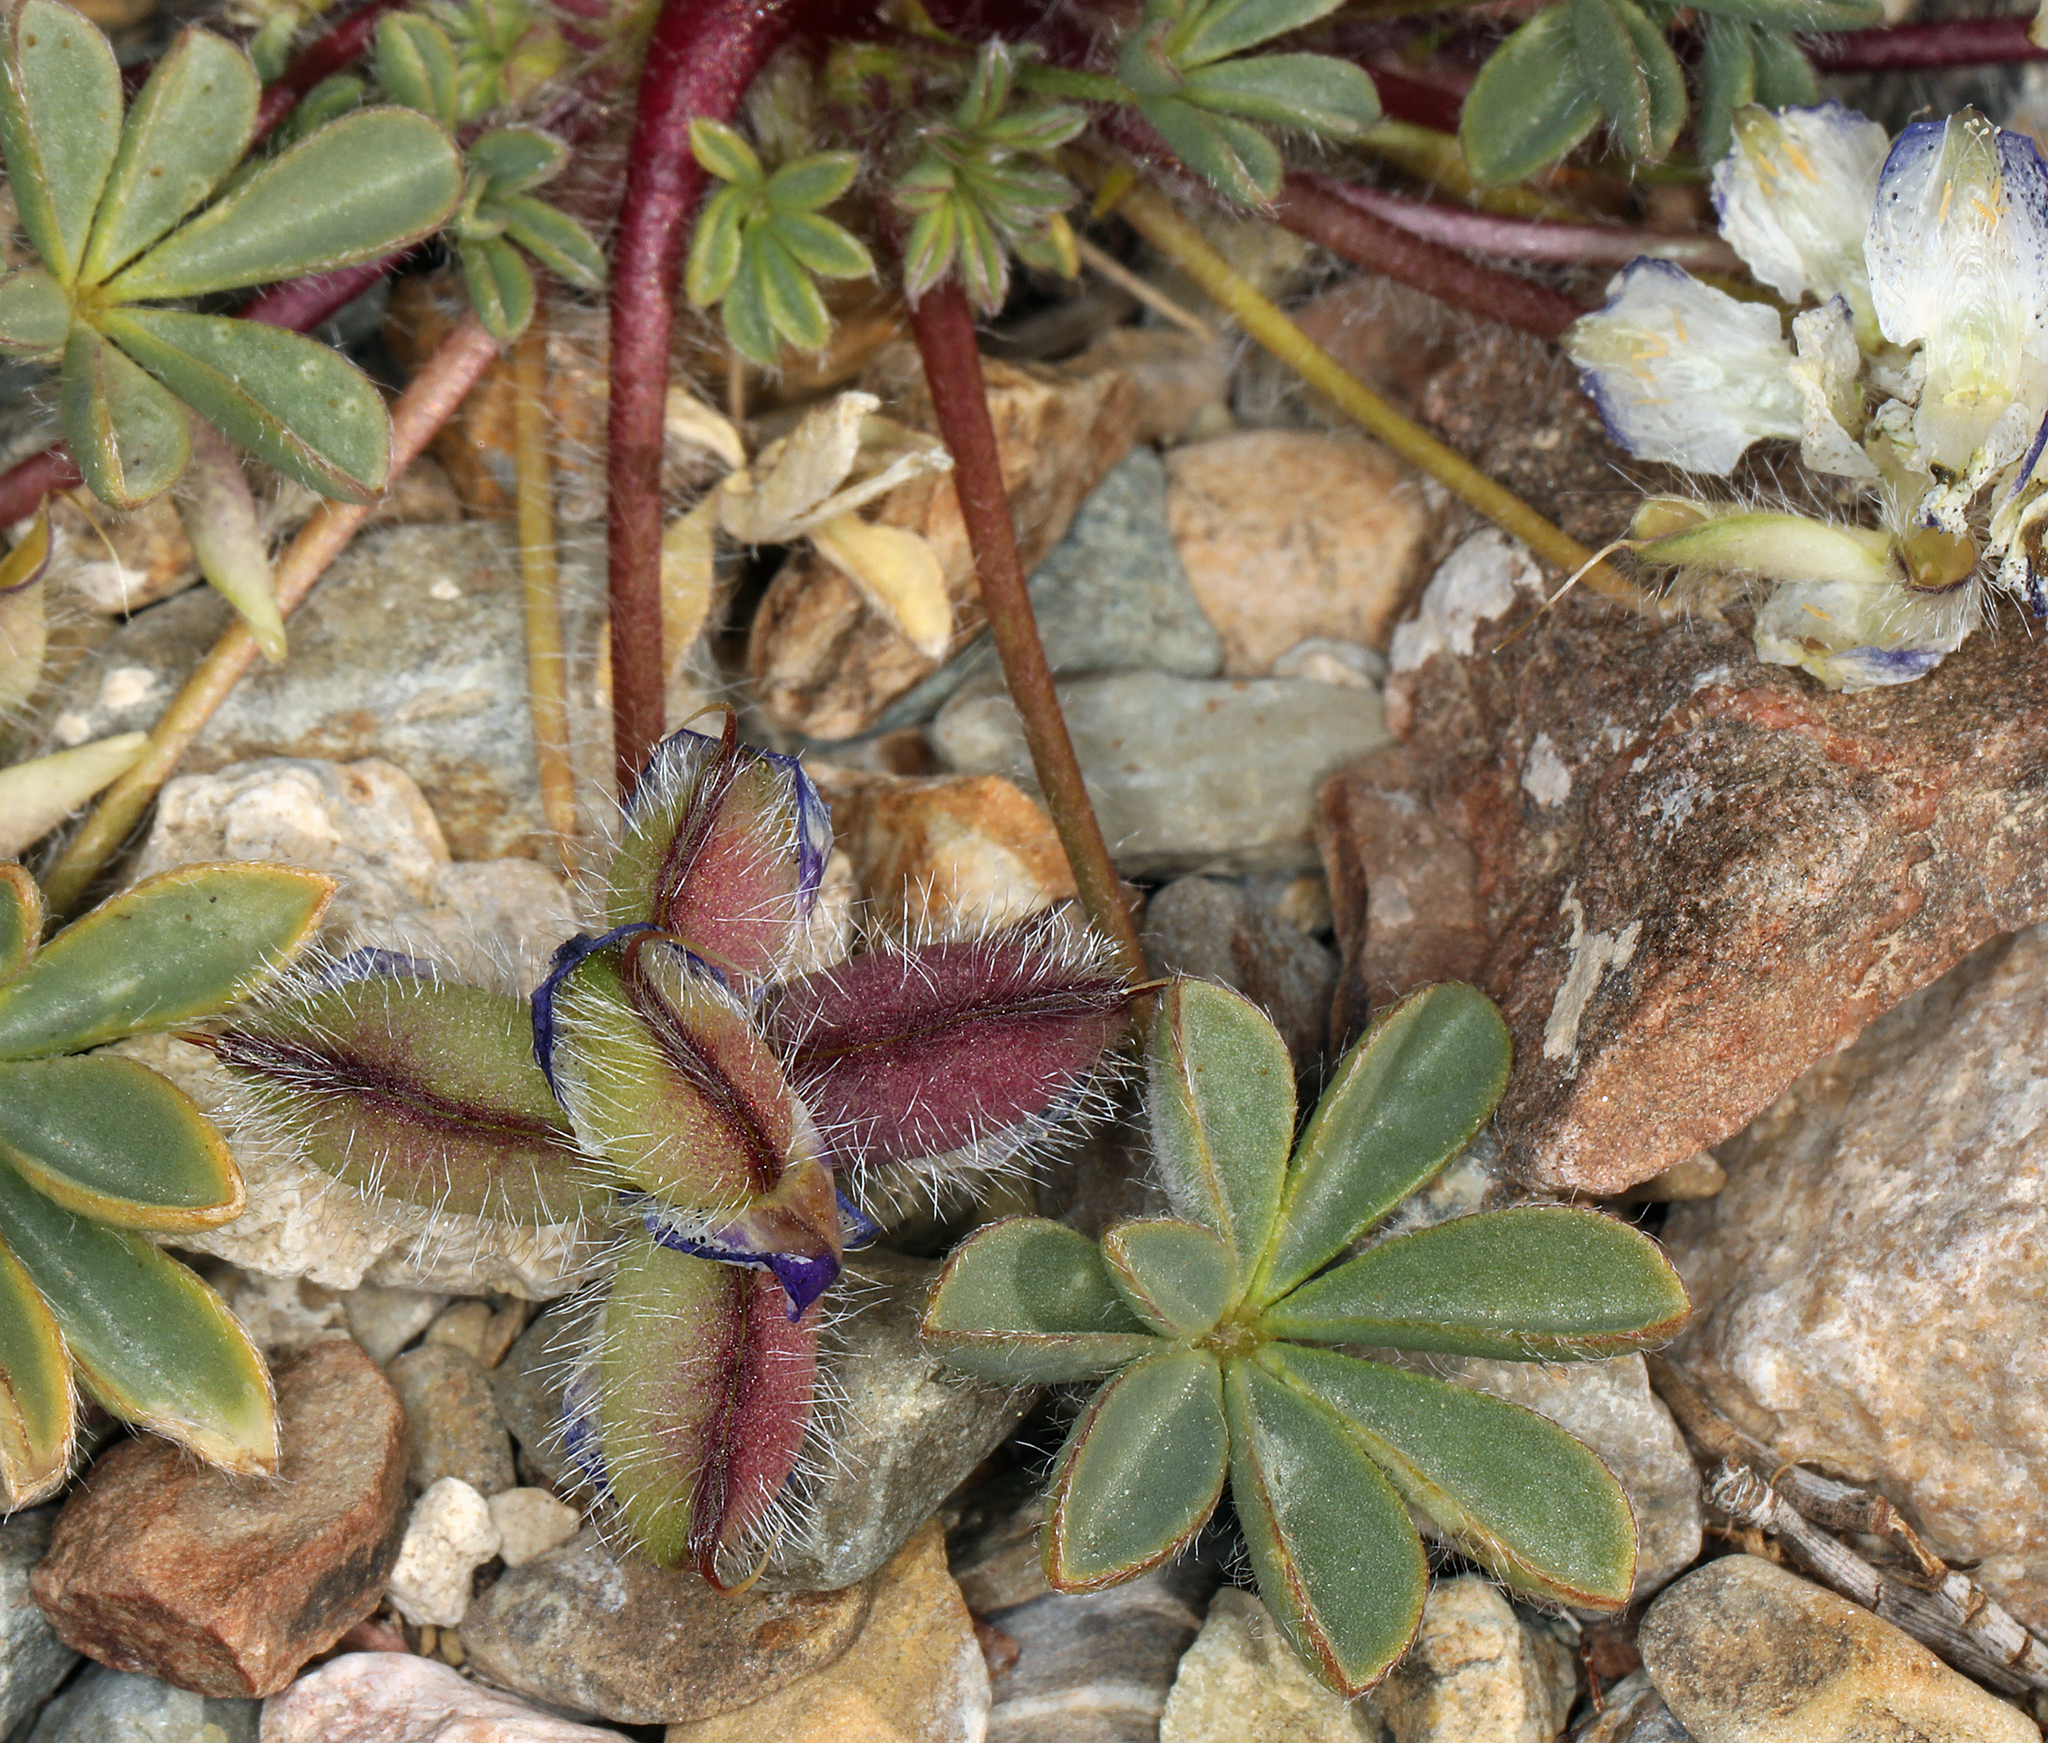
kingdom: Plantae
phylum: Tracheophyta
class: Magnoliopsida
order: Fabales
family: Fabaceae
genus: Lupinus
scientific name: Lupinus flavoculatus
